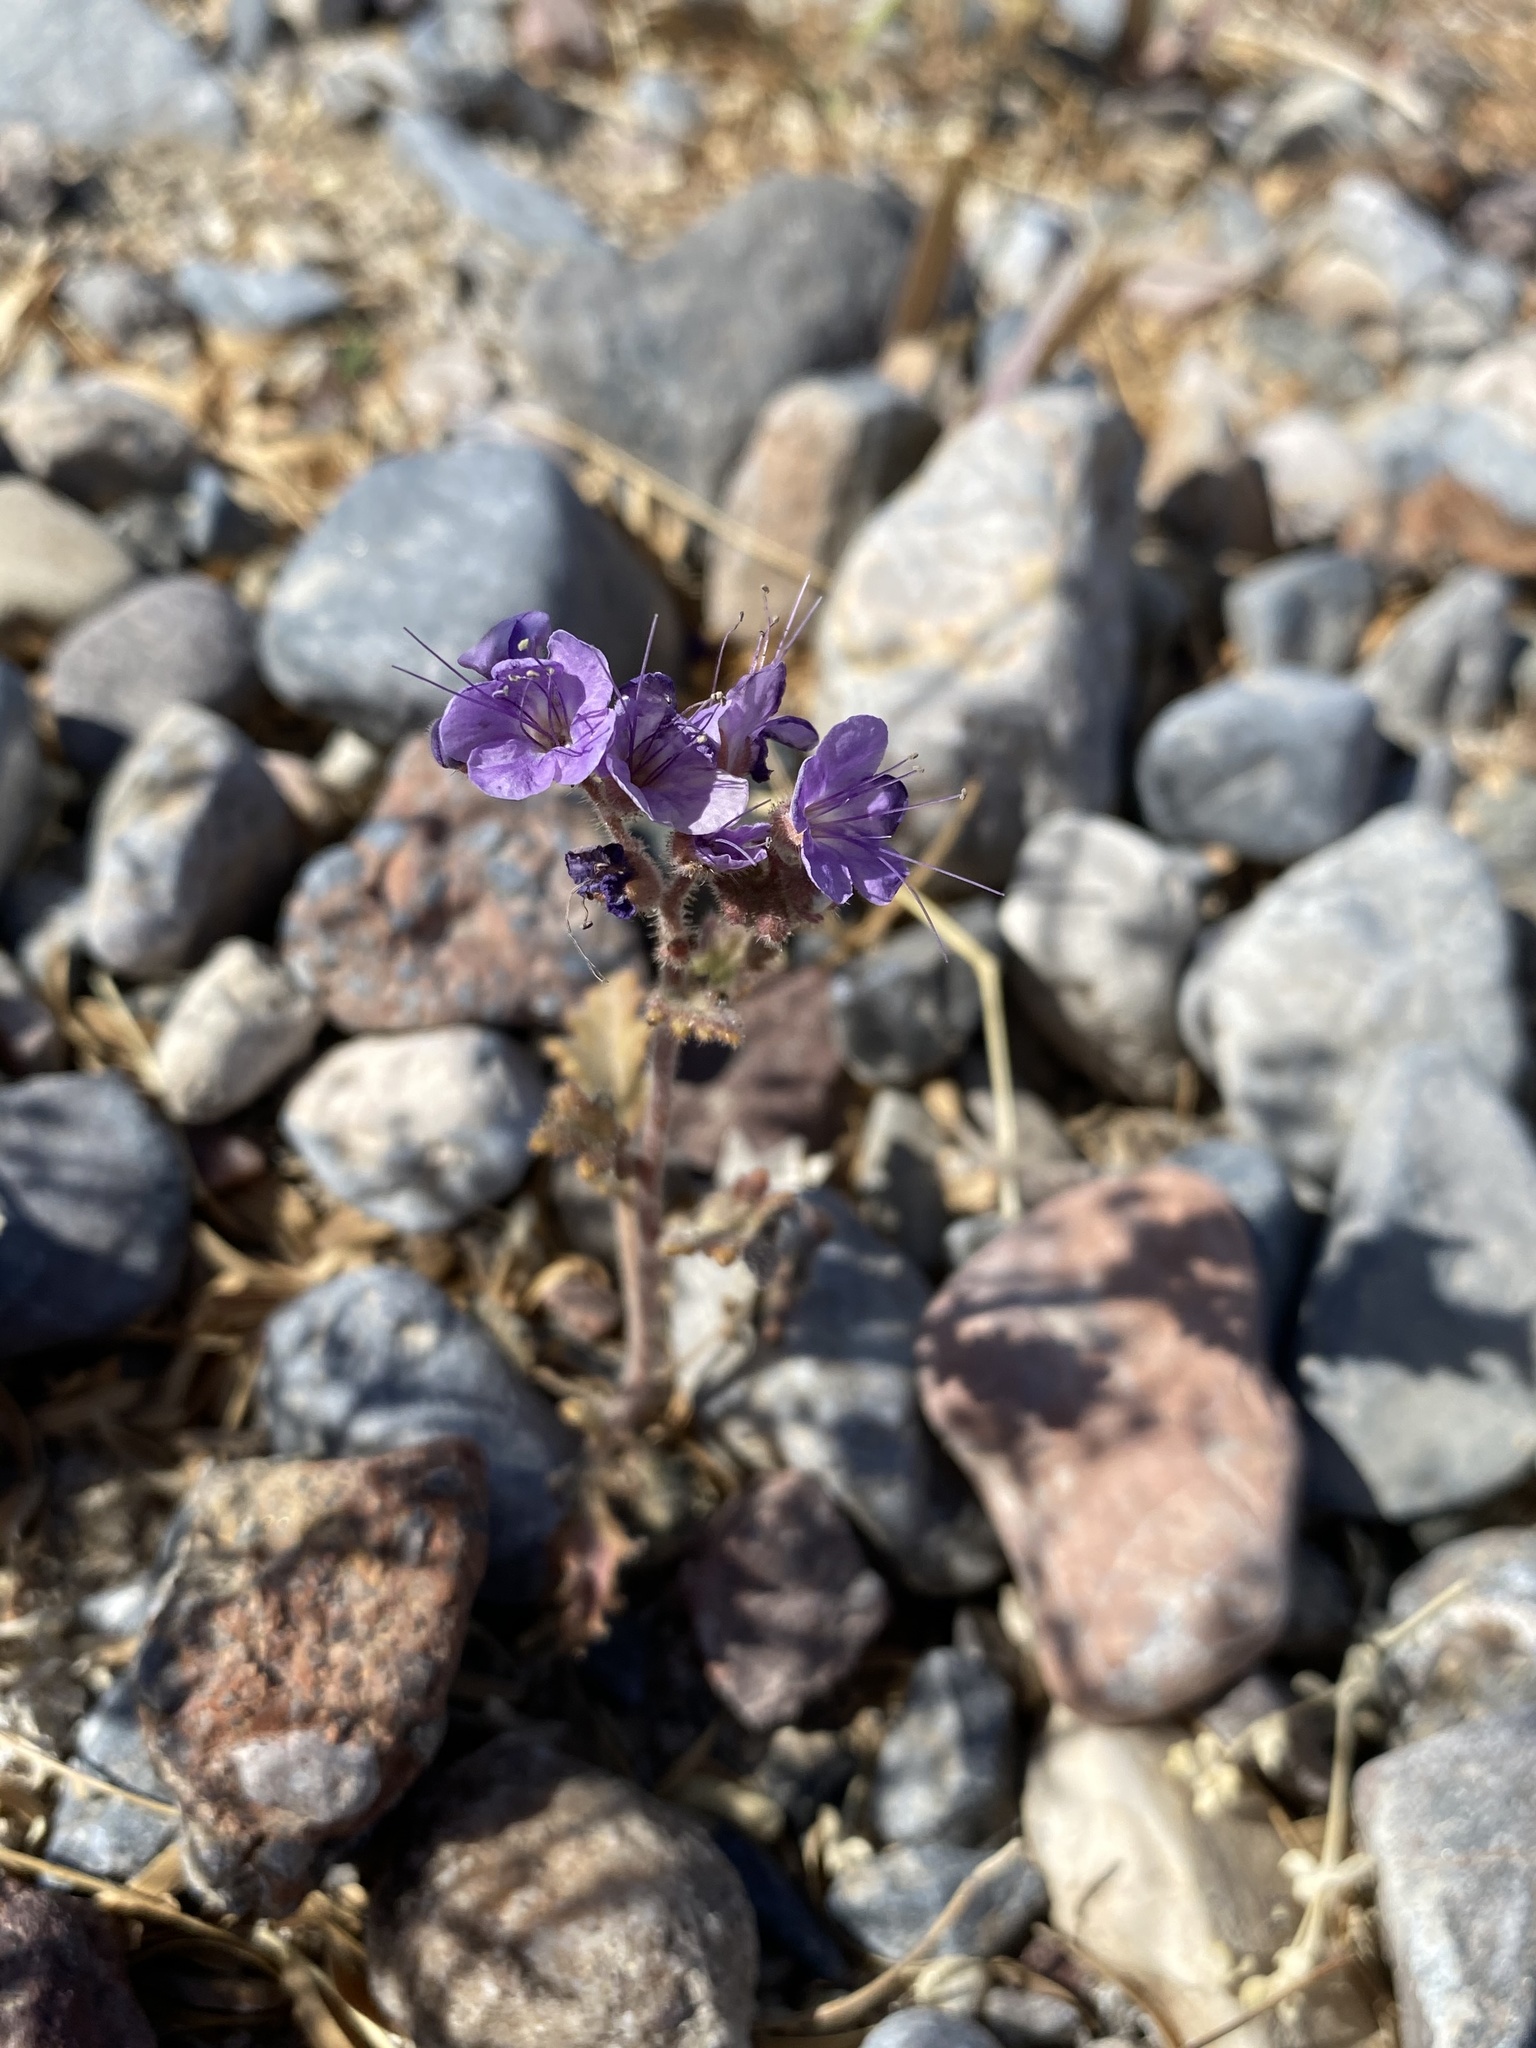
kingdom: Plantae
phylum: Tracheophyta
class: Magnoliopsida
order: Boraginales
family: Hydrophyllaceae
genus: Phacelia
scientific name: Phacelia crenulata
